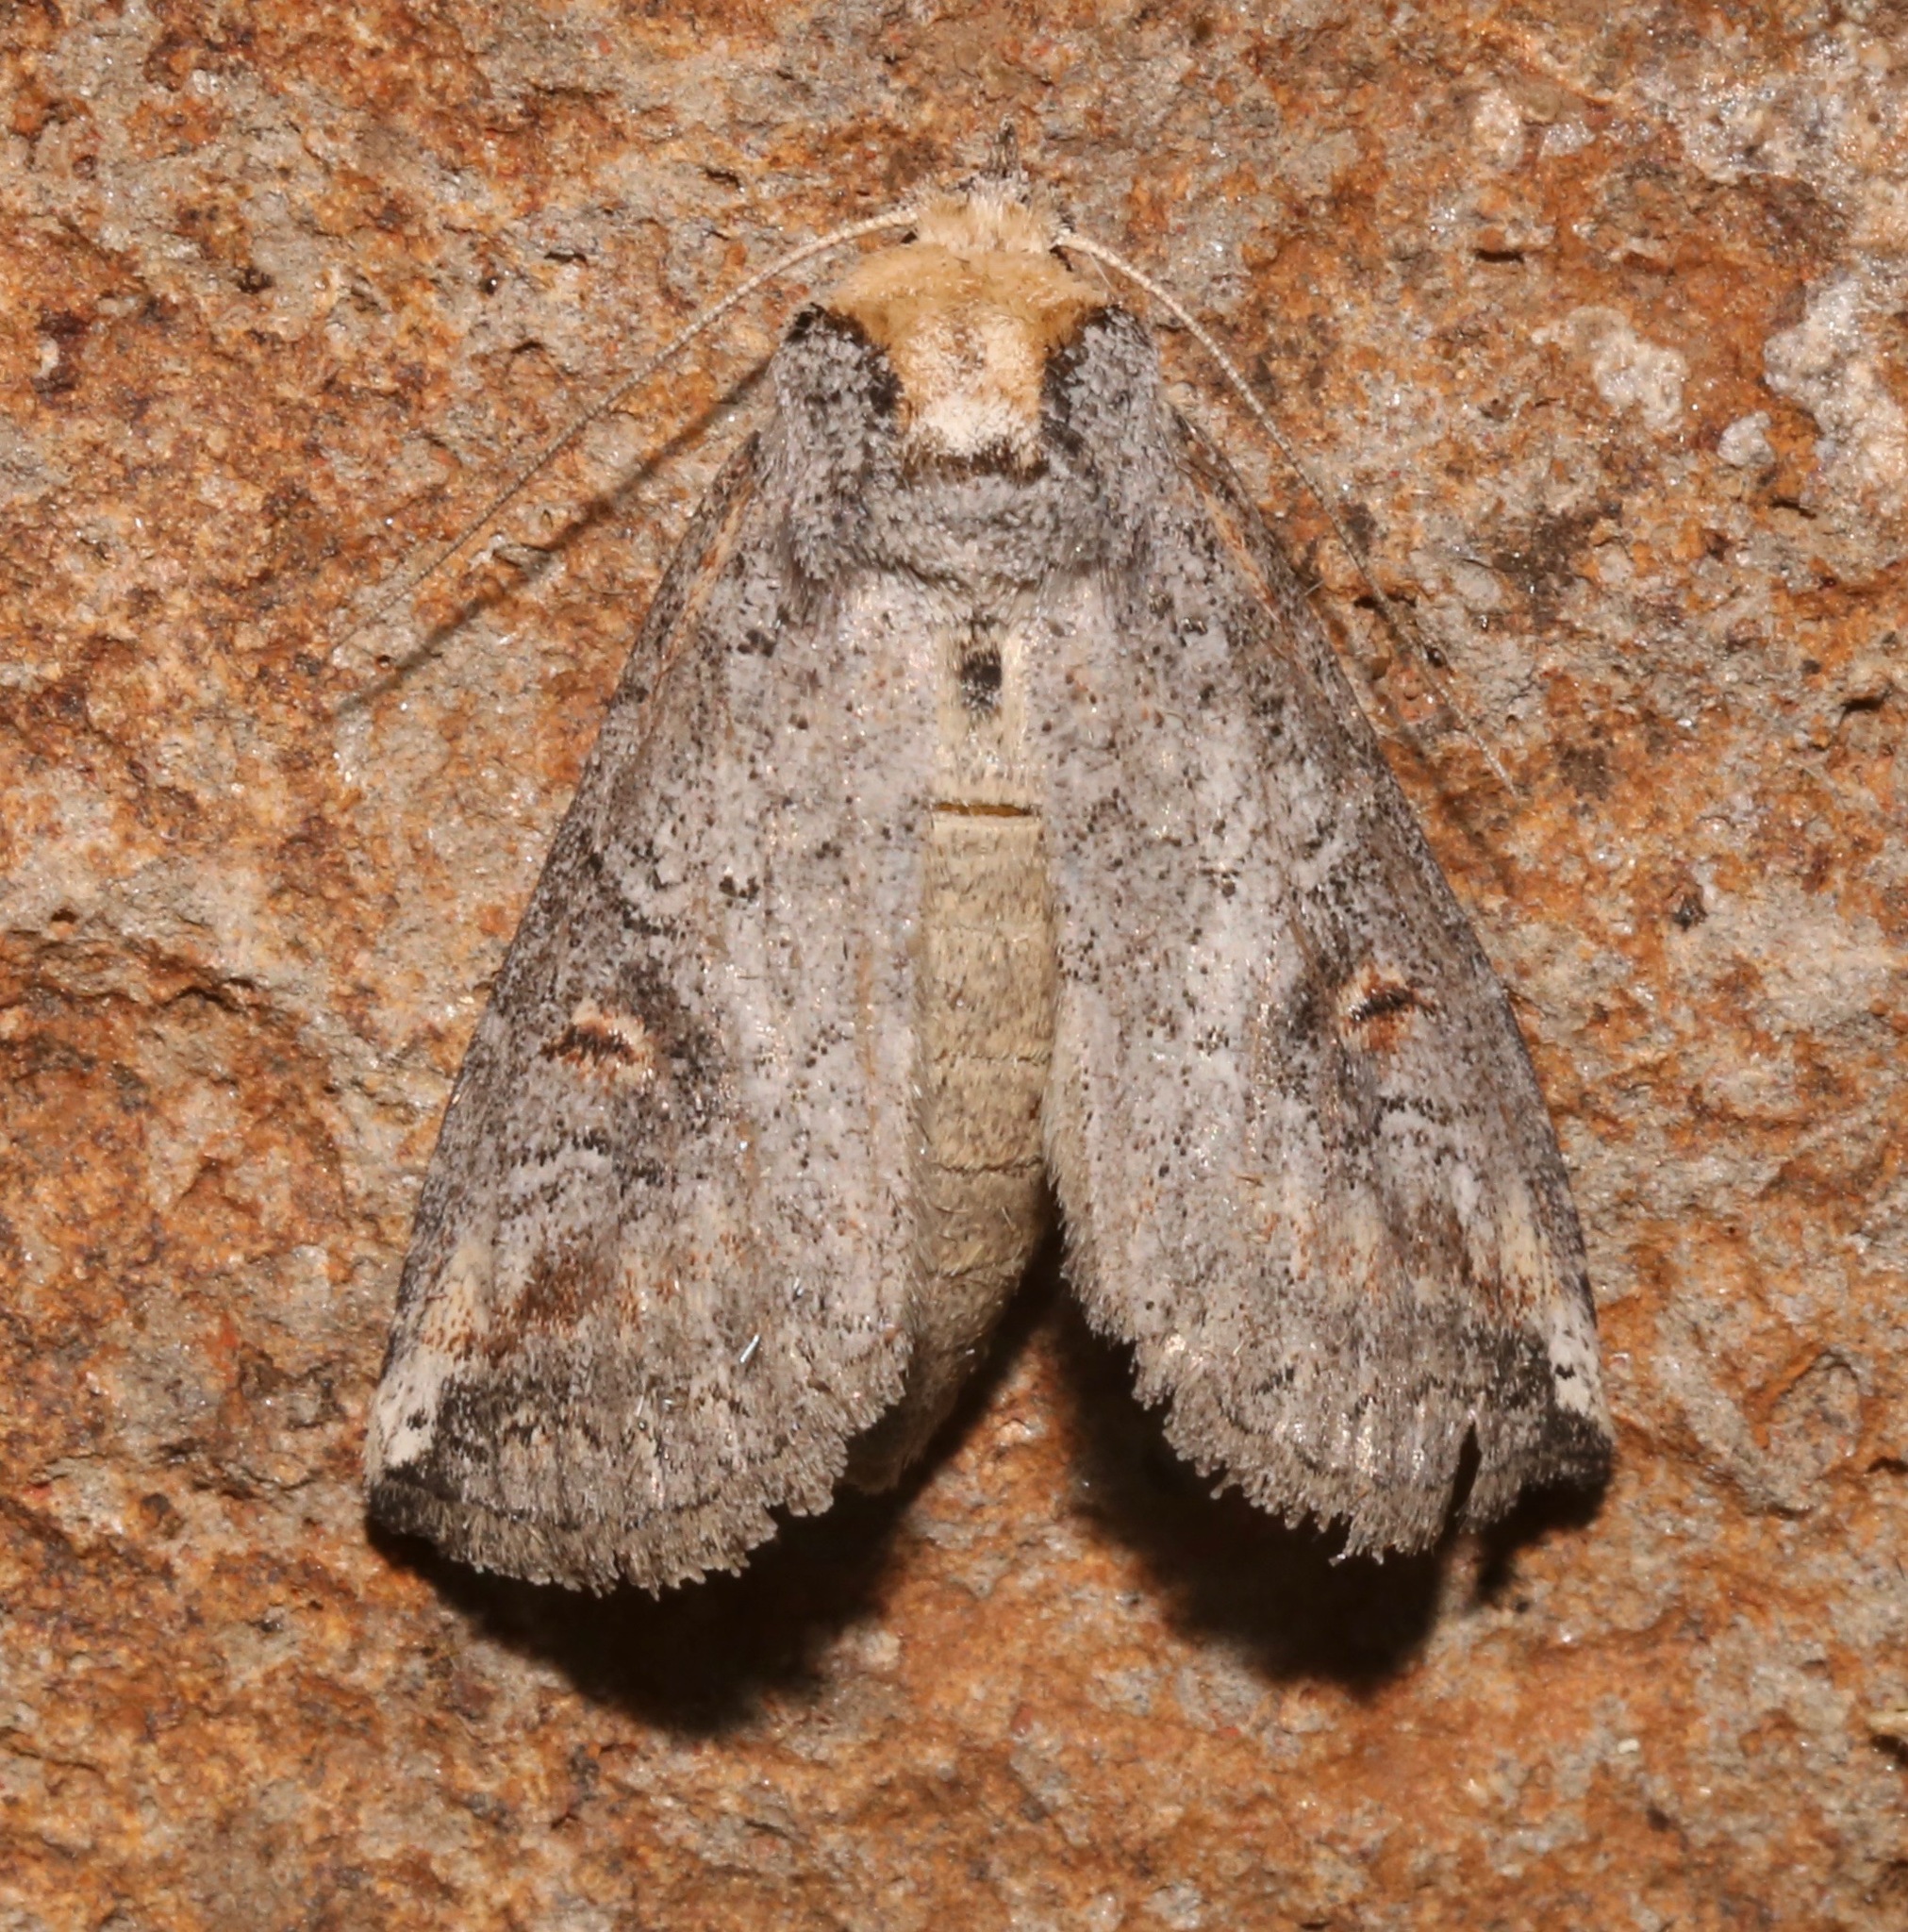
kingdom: Animalia
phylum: Arthropoda
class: Insecta
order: Lepidoptera
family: Notodontidae
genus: Elasmia
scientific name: Elasmia packardii
